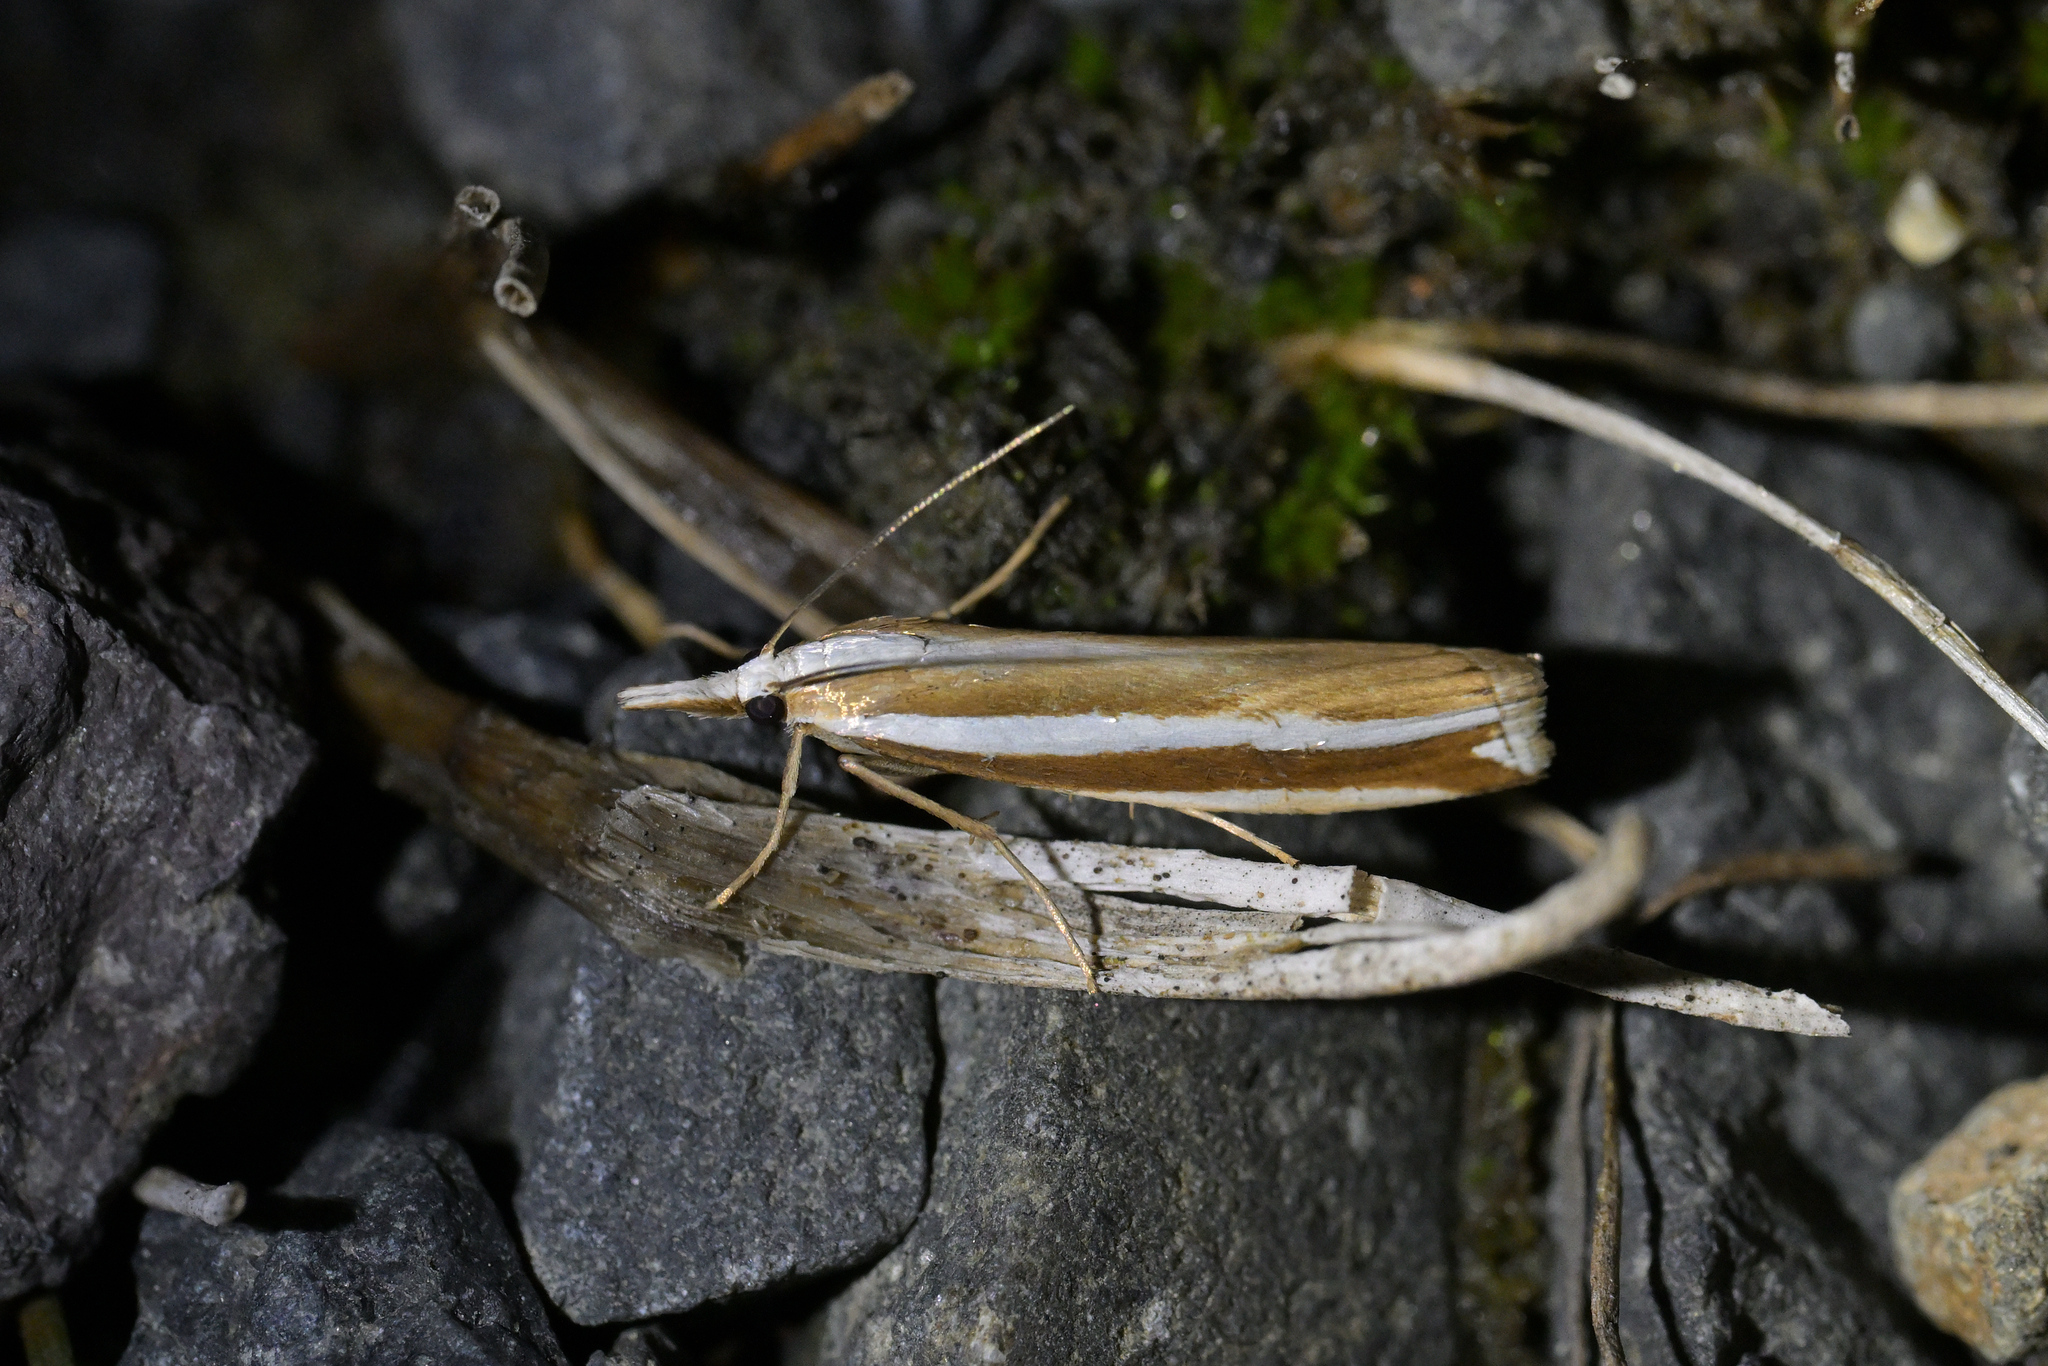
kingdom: Animalia
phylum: Arthropoda
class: Insecta
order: Lepidoptera
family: Crambidae
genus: Orocrambus
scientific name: Orocrambus apicellus
